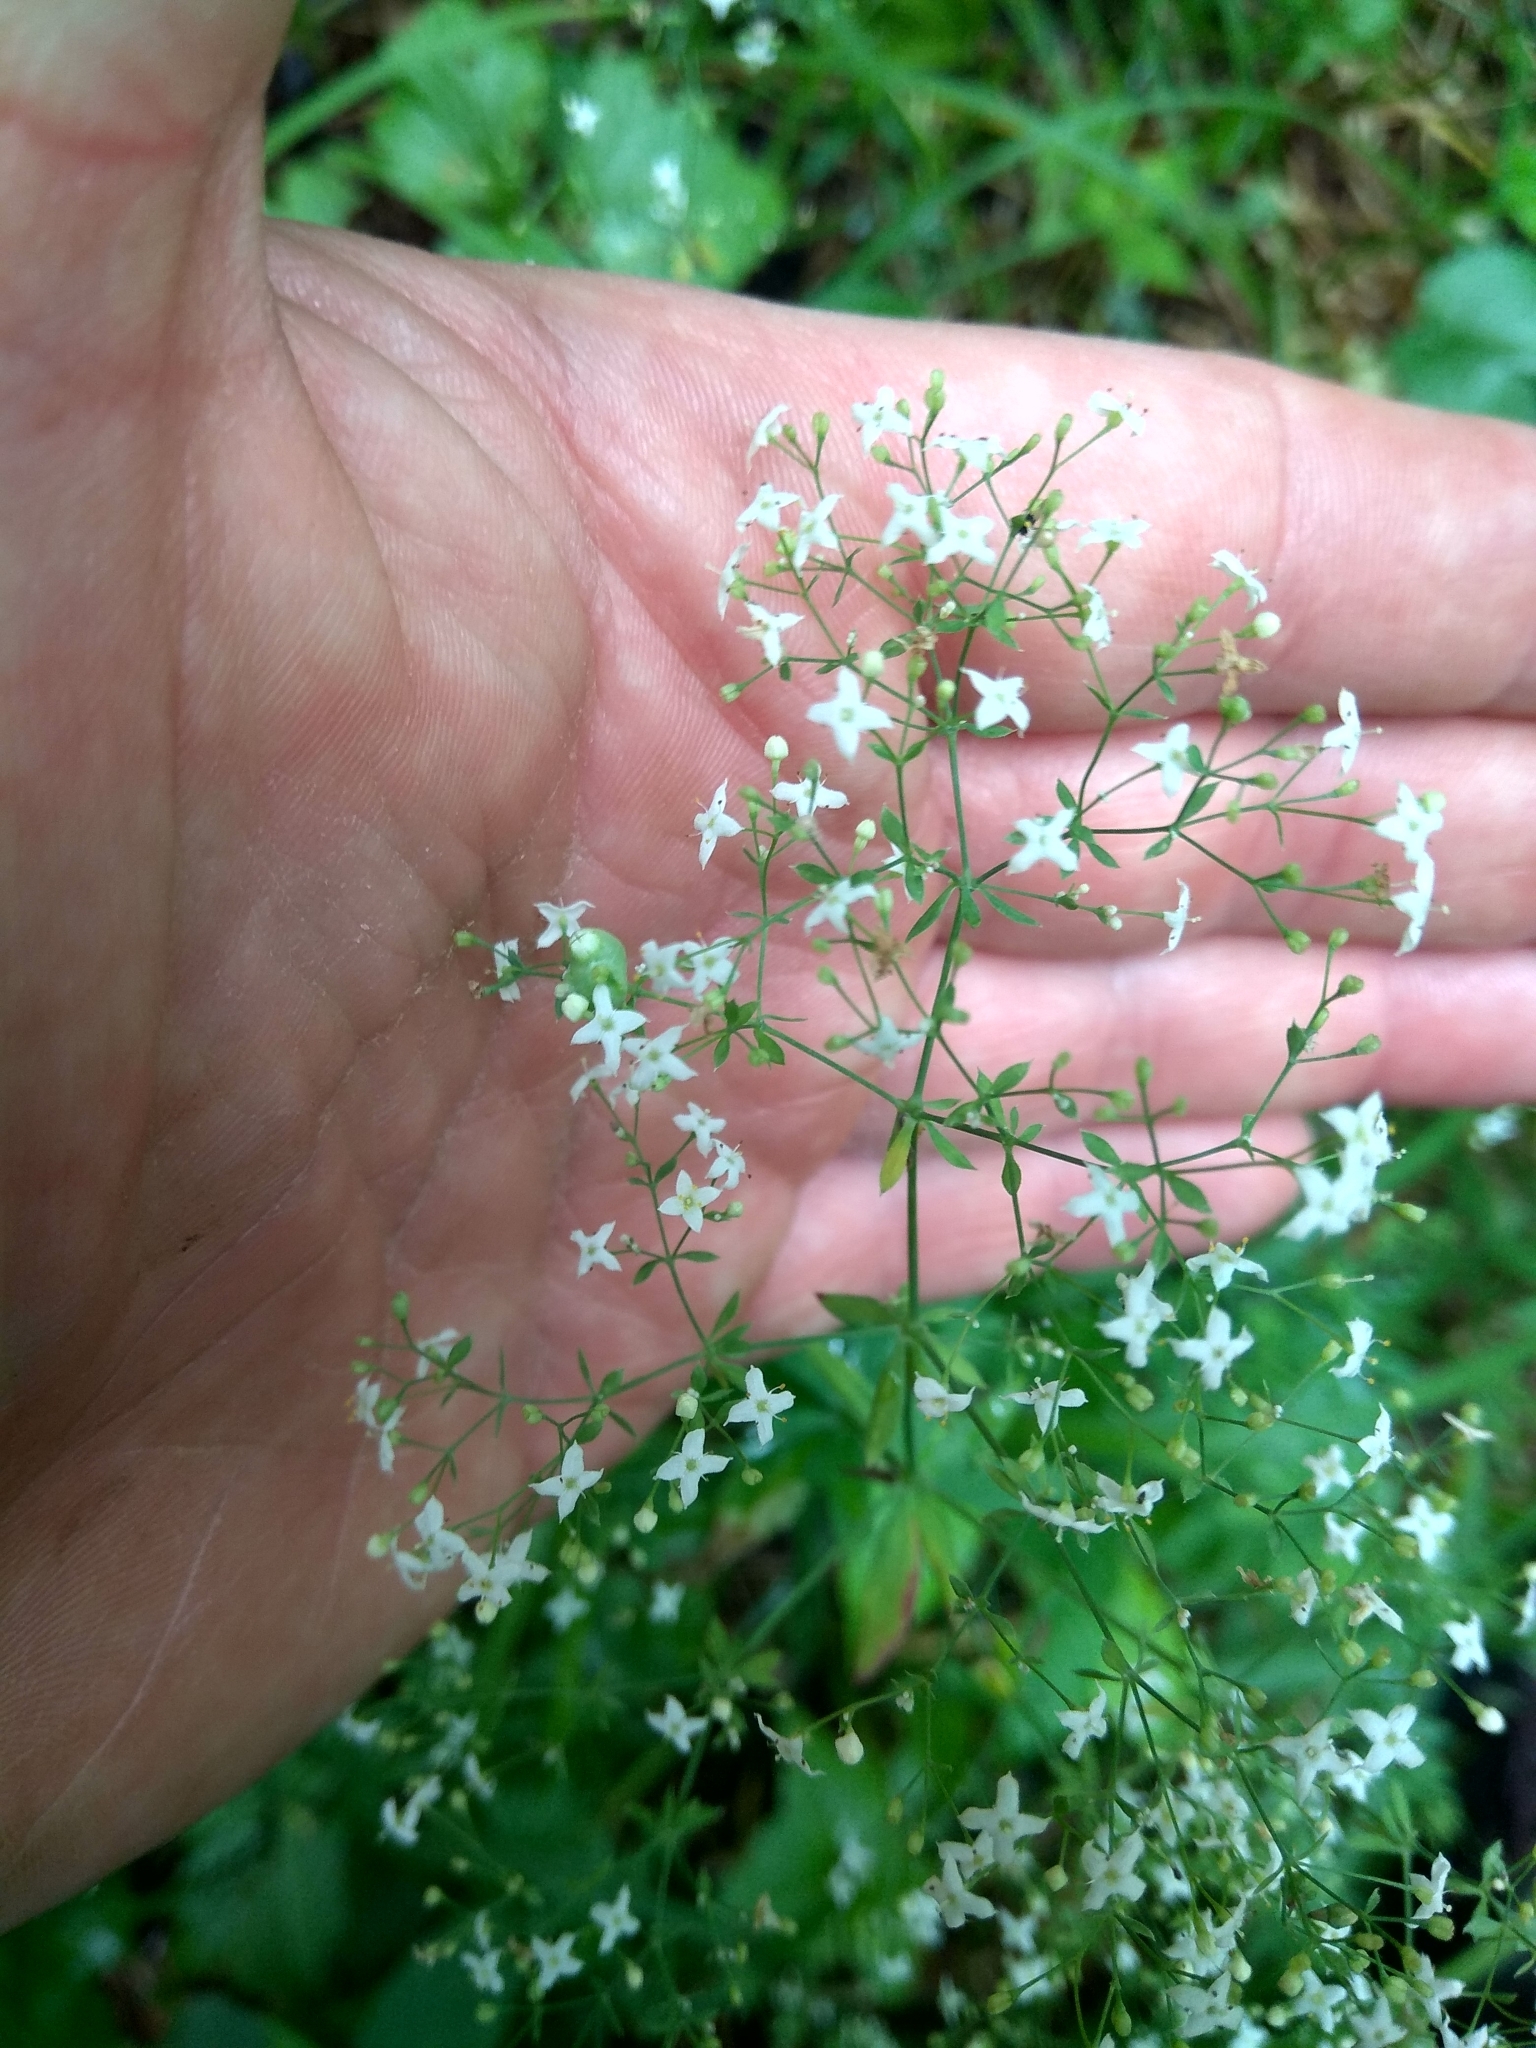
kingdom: Plantae
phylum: Tracheophyta
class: Magnoliopsida
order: Gentianales
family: Rubiaceae
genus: Galium
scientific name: Galium intermedium
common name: Bedstraw
